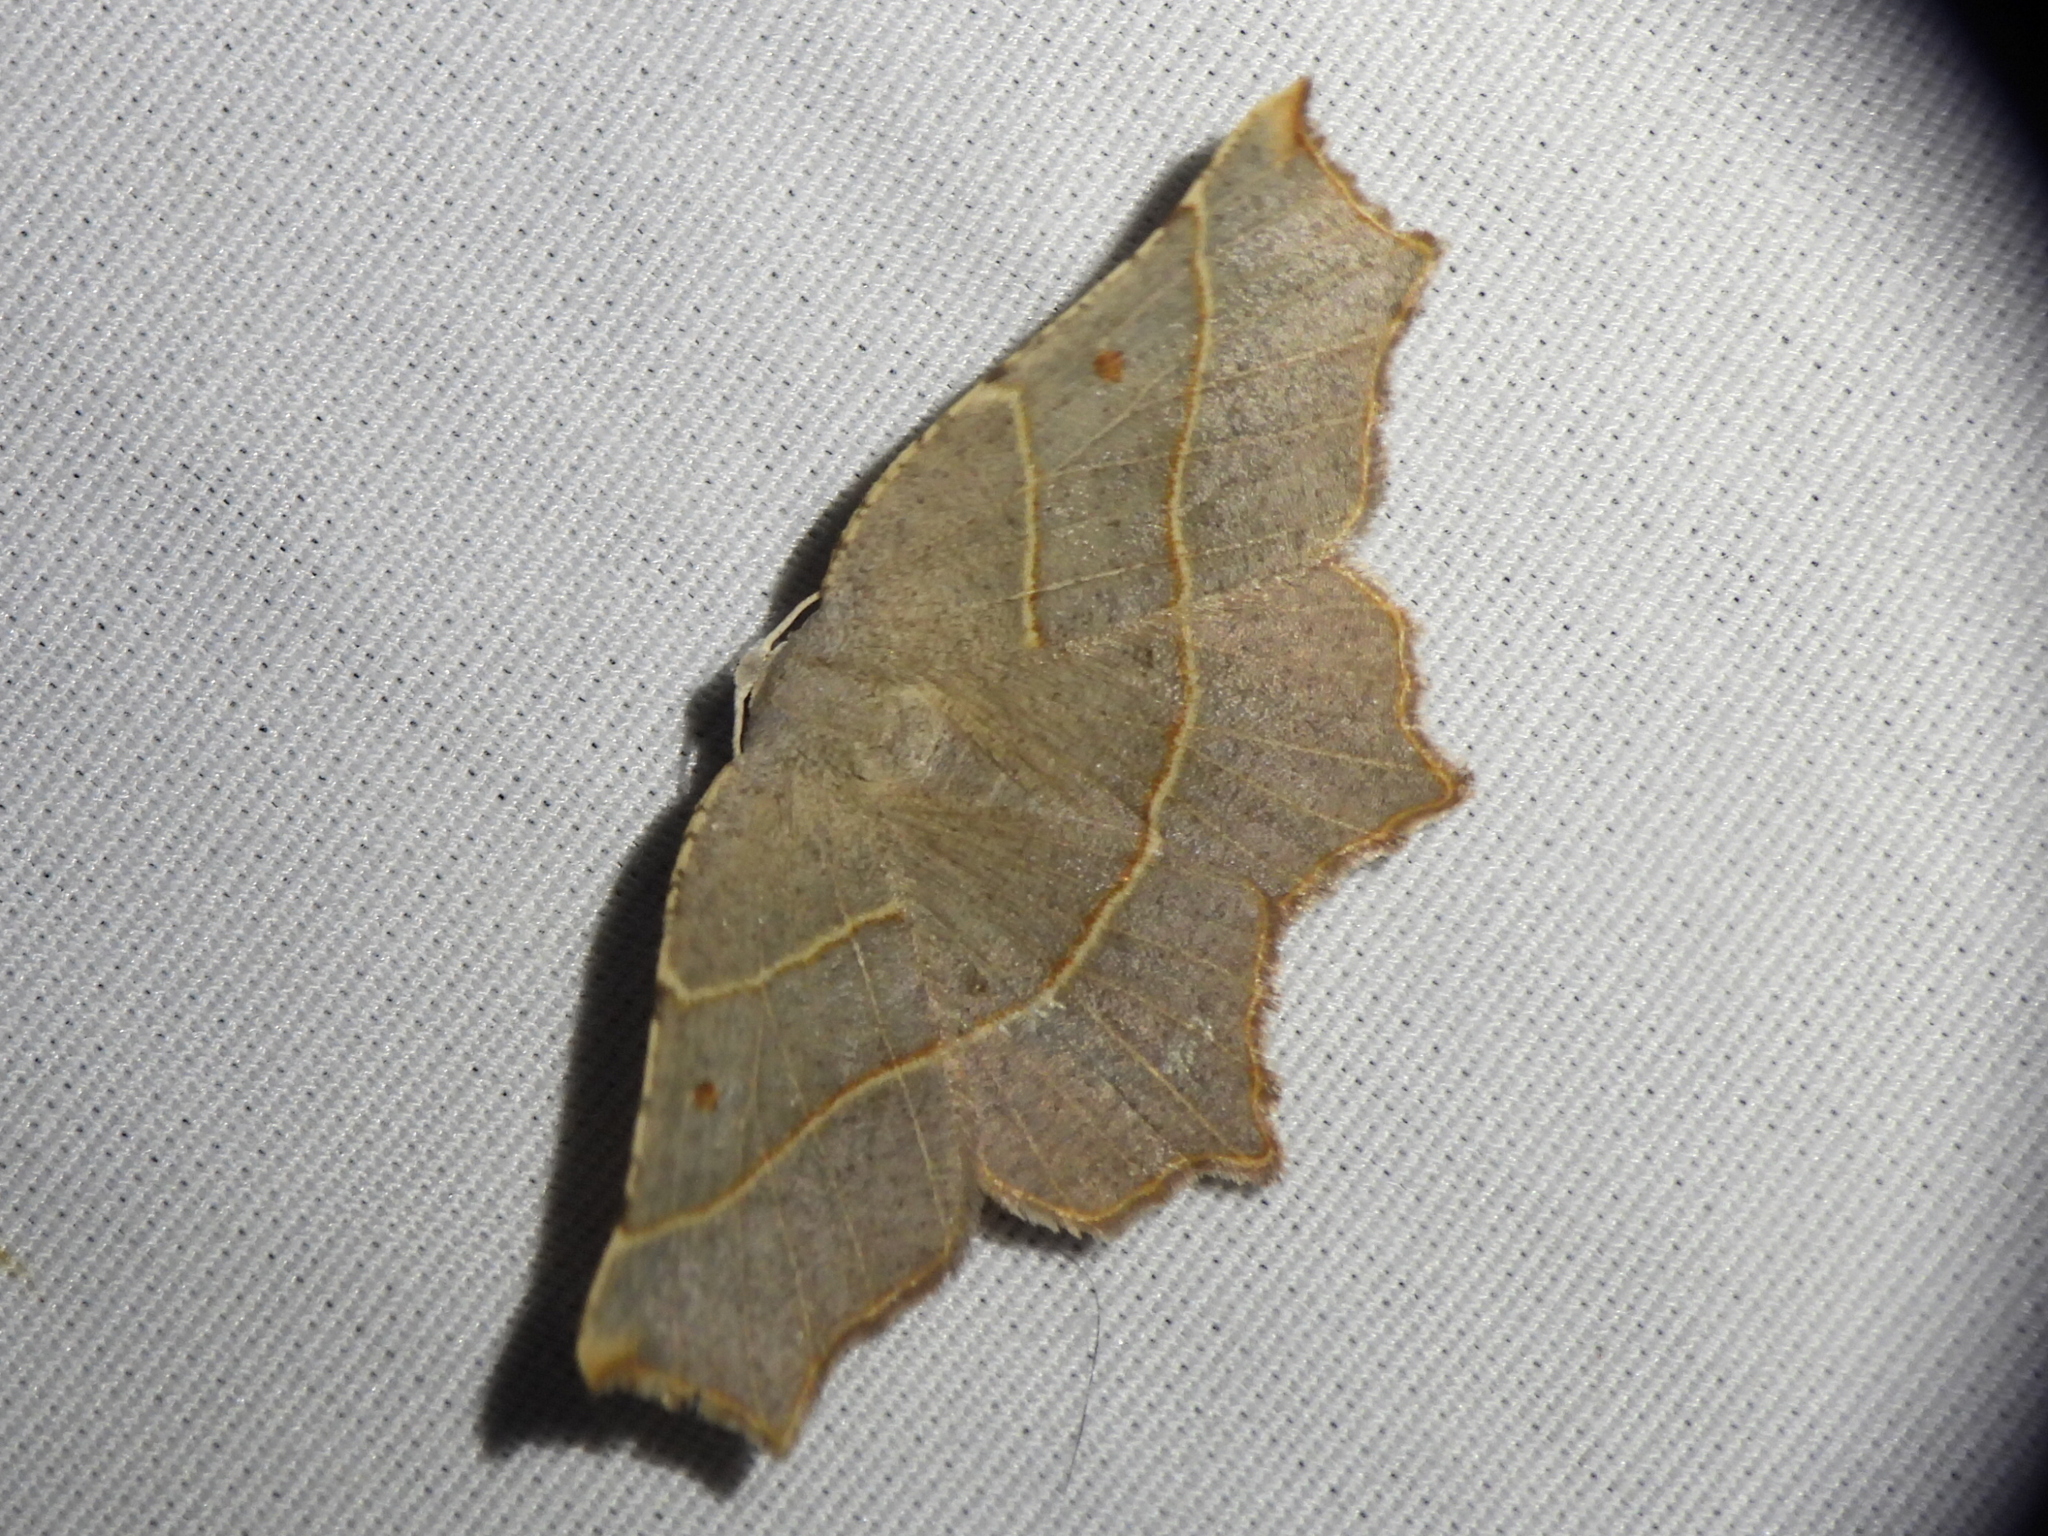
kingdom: Animalia
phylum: Arthropoda
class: Insecta
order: Lepidoptera
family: Geometridae
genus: Metanema
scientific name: Metanema inatomaria
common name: Pale metanema
